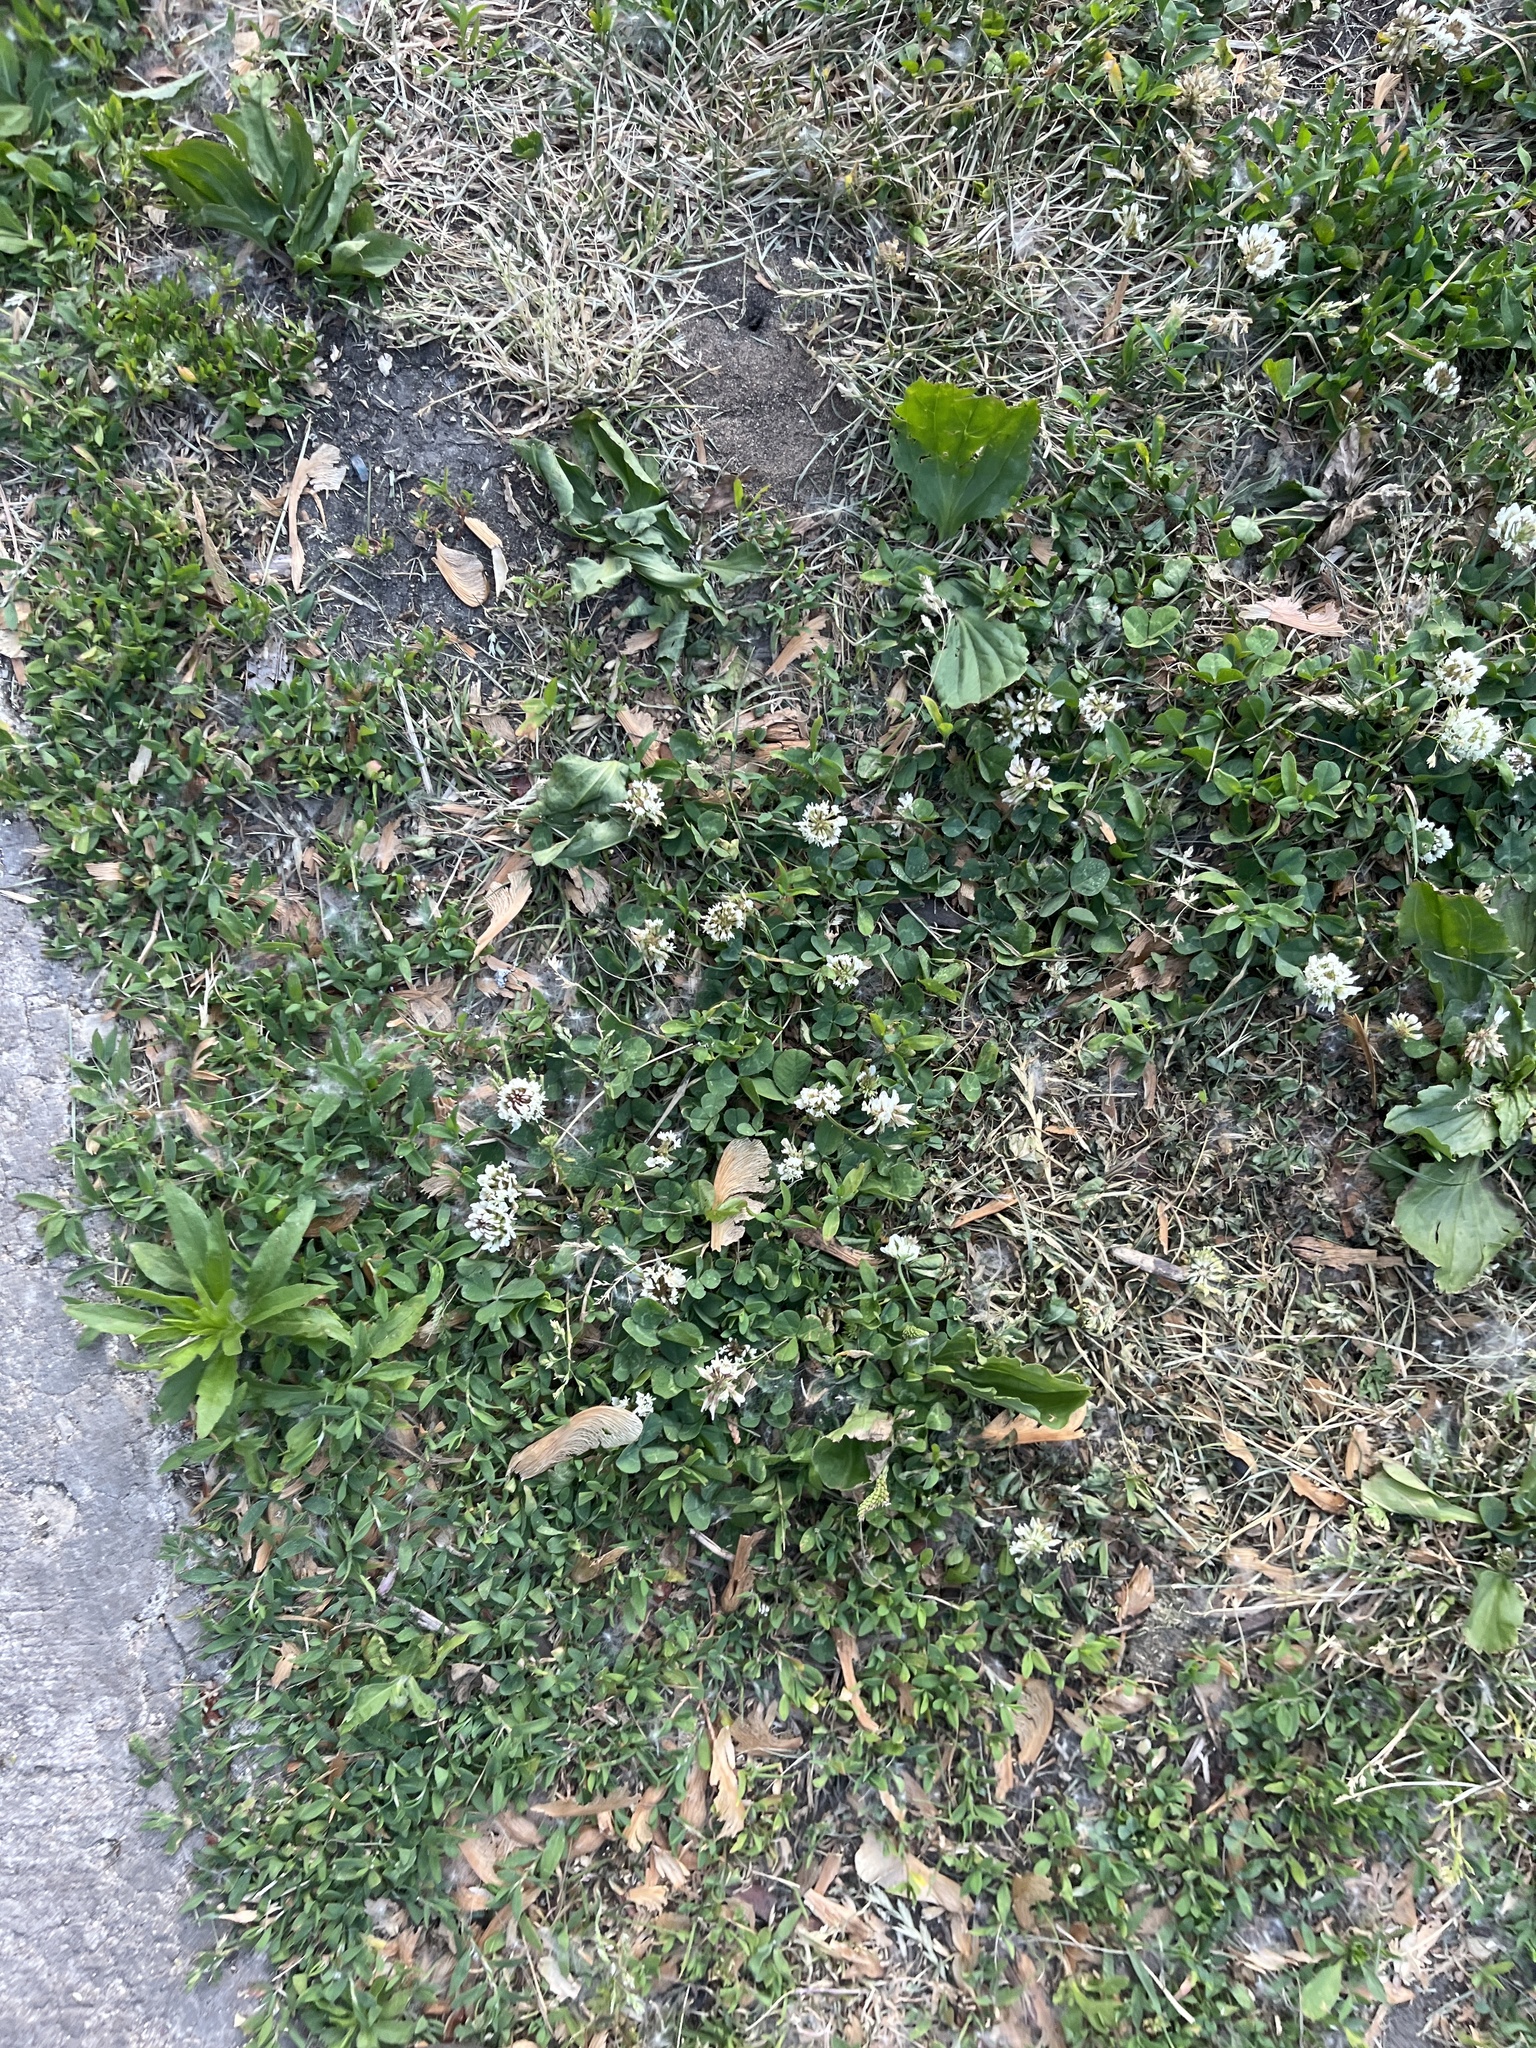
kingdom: Plantae
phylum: Tracheophyta
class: Magnoliopsida
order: Fabales
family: Fabaceae
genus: Trifolium
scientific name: Trifolium repens
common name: White clover
